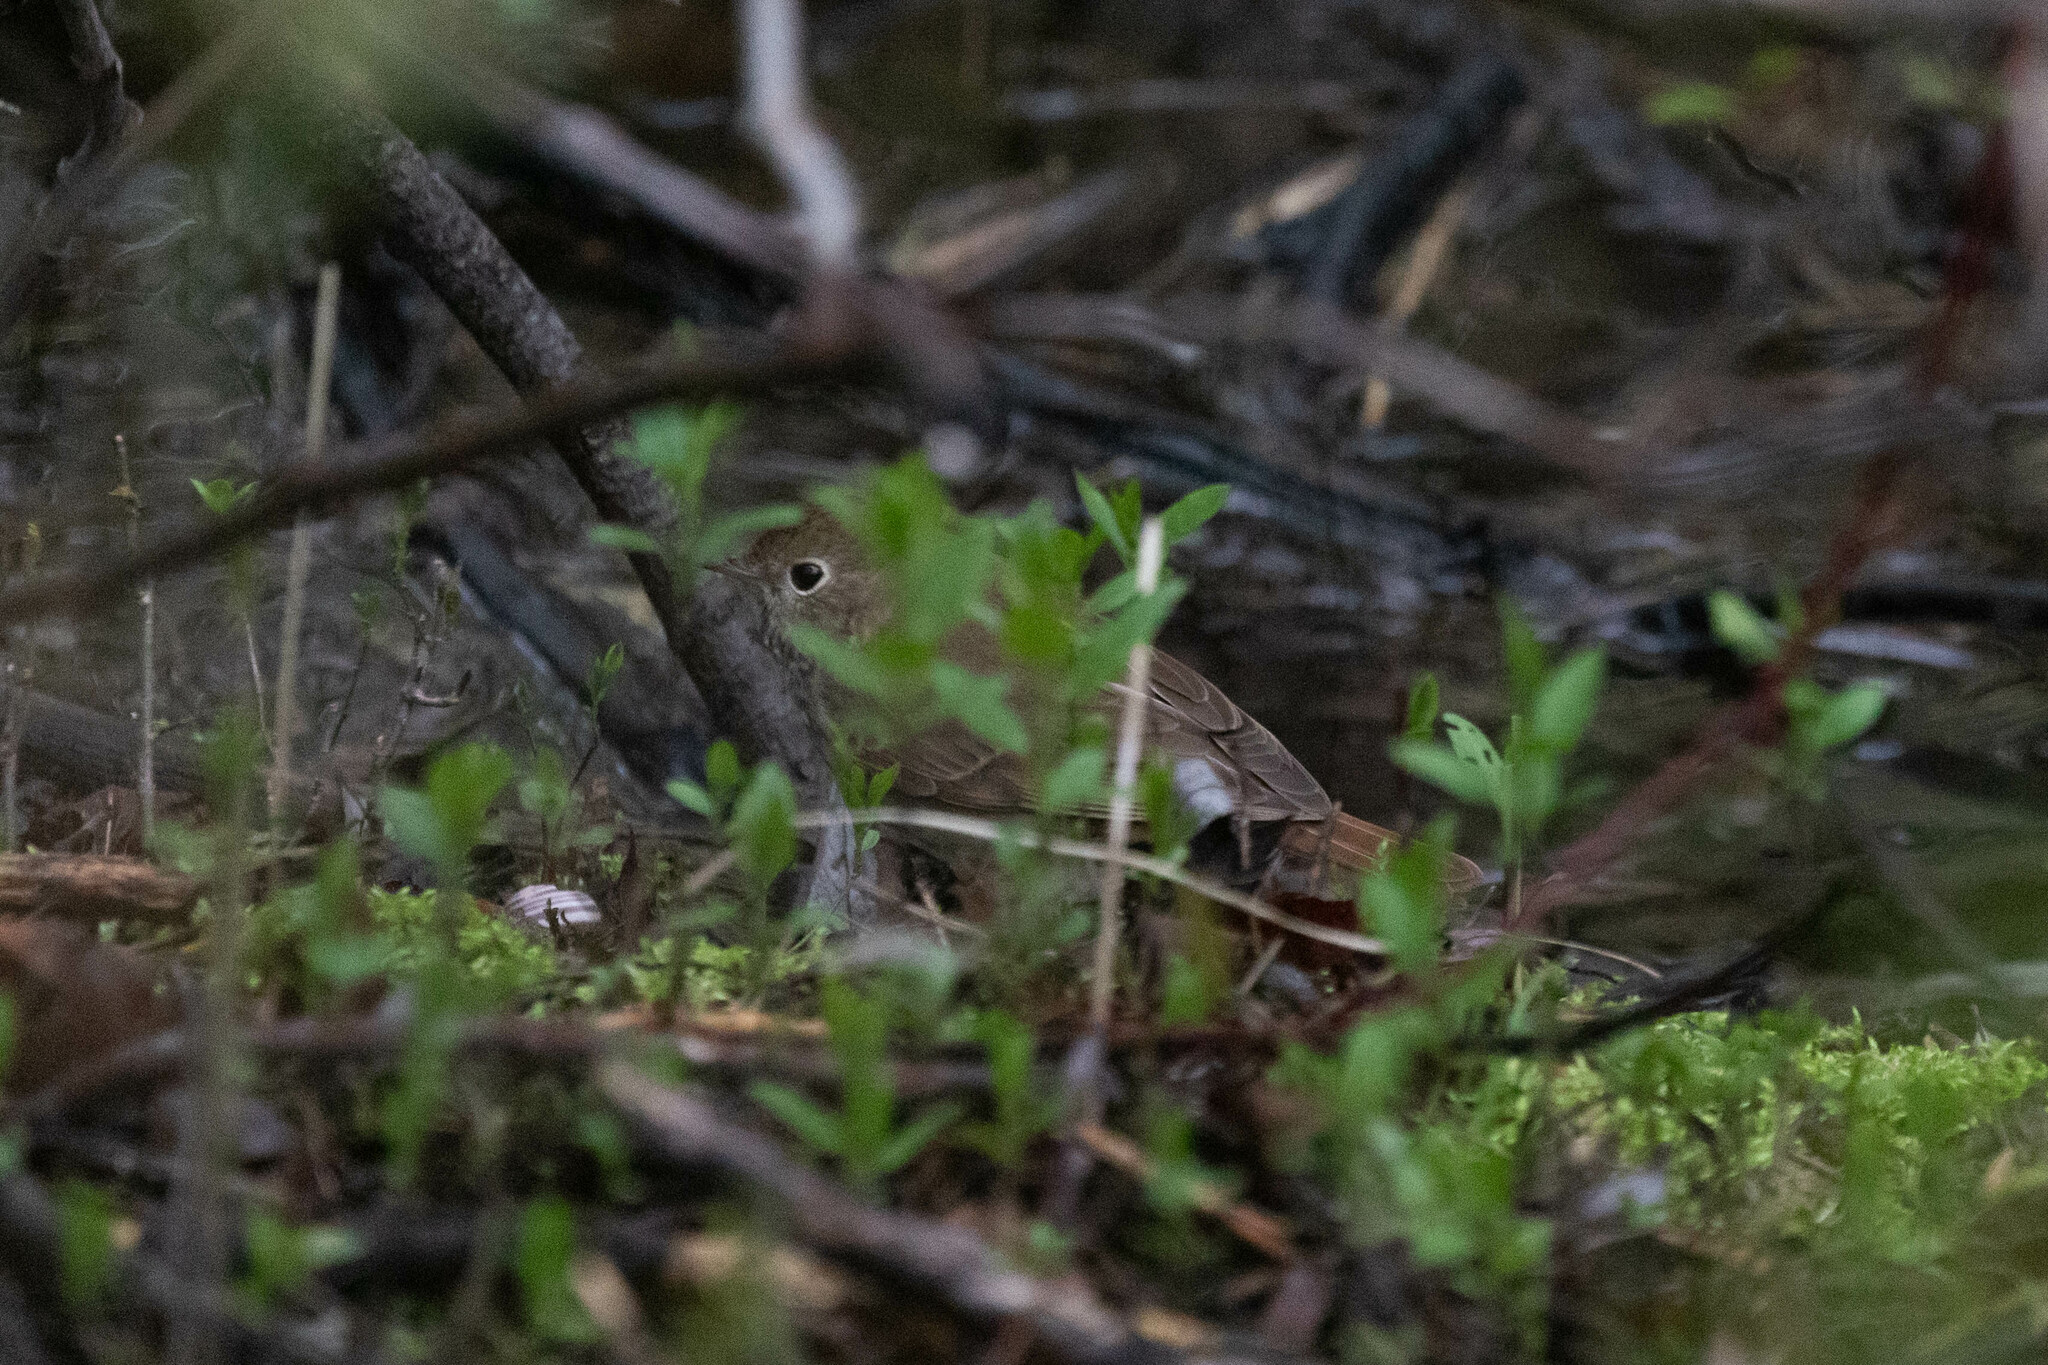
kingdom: Animalia
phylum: Chordata
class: Aves
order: Passeriformes
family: Turdidae
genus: Catharus
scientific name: Catharus guttatus
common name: Hermit thrush
